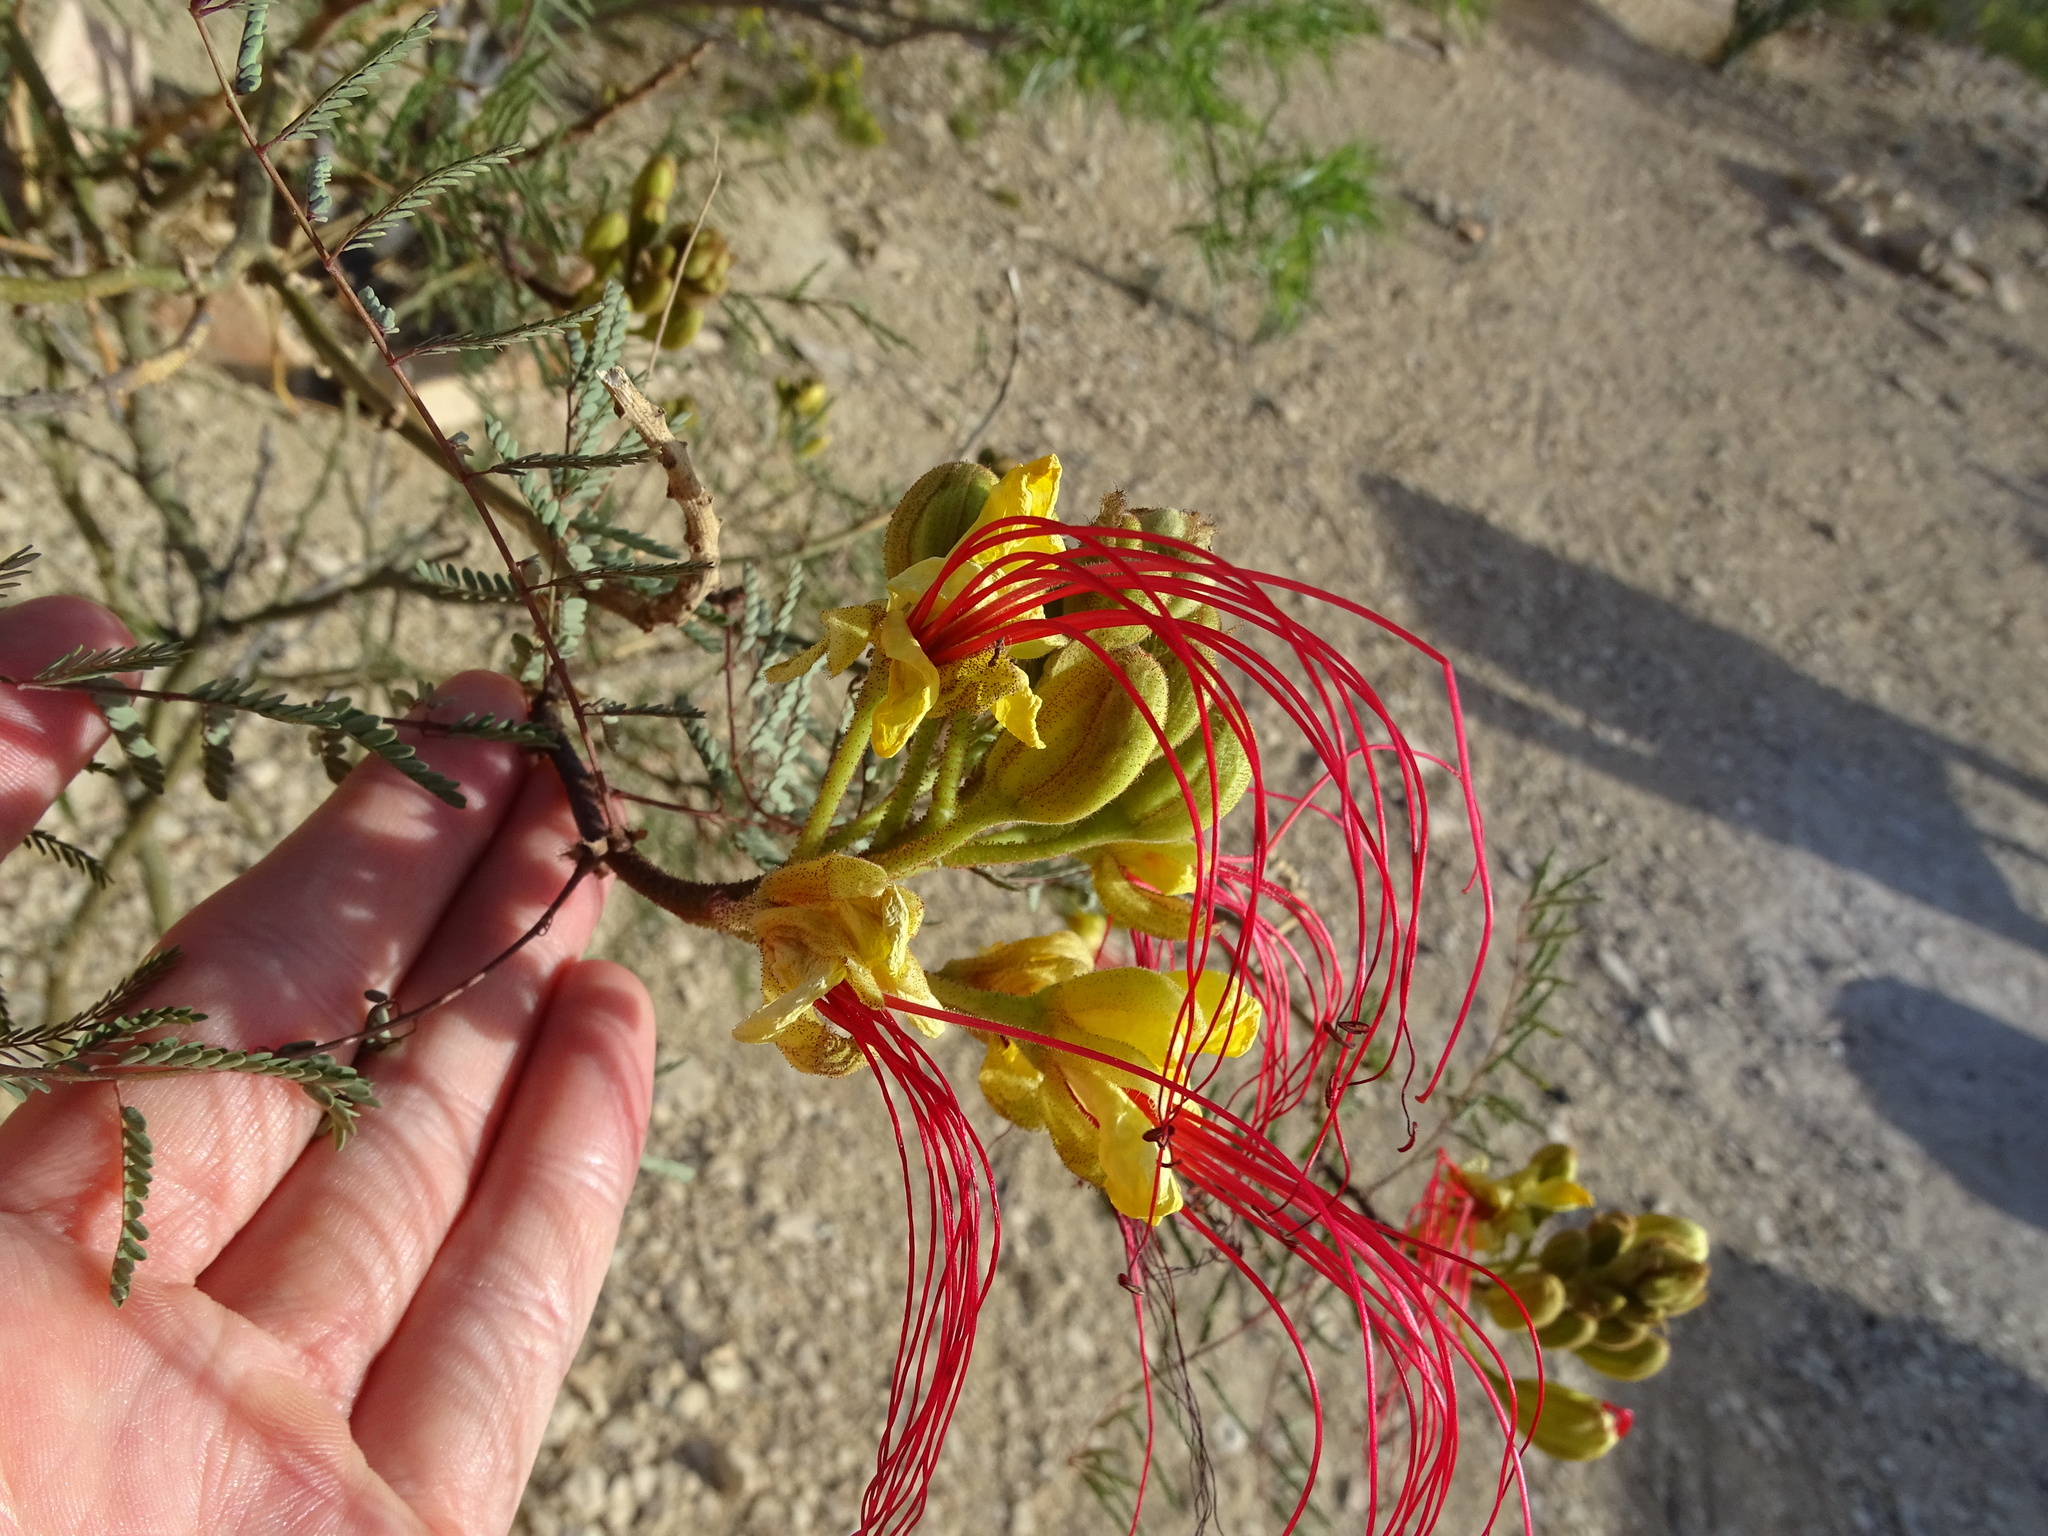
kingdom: Plantae
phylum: Tracheophyta
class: Magnoliopsida
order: Fabales
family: Fabaceae
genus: Erythrostemon
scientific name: Erythrostemon gilliesii
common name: Bird-of-paradise shrub
